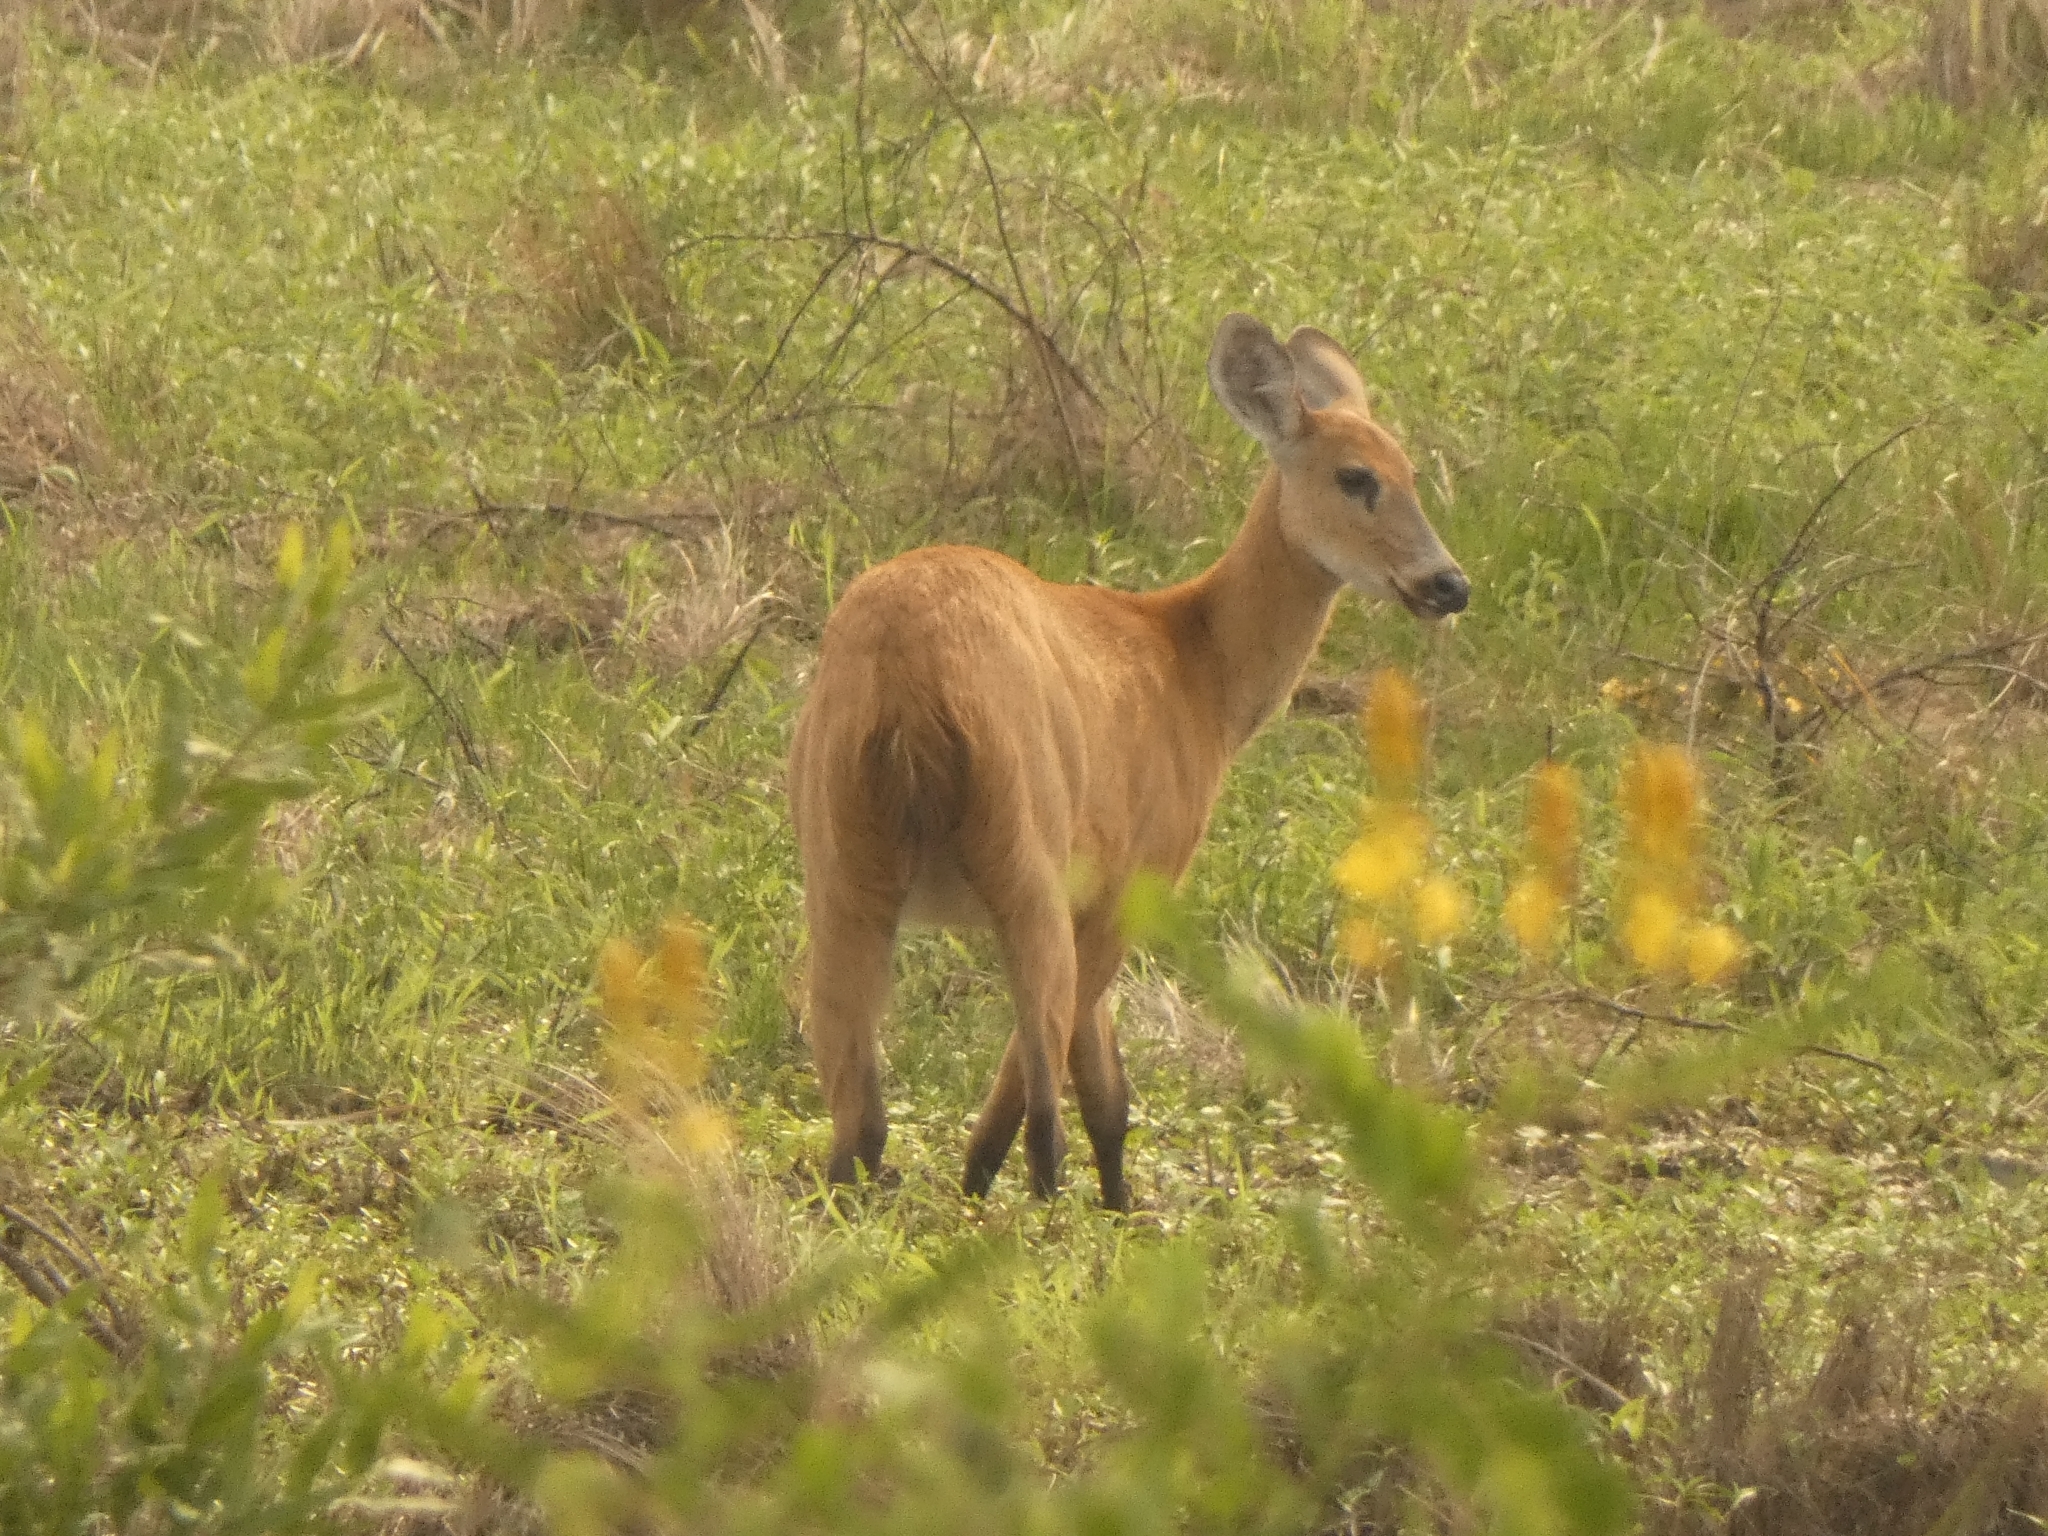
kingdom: Animalia
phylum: Chordata
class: Mammalia
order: Artiodactyla
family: Cervidae
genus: Blastocerus
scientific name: Blastocerus dichotomus
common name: Marsh deer
